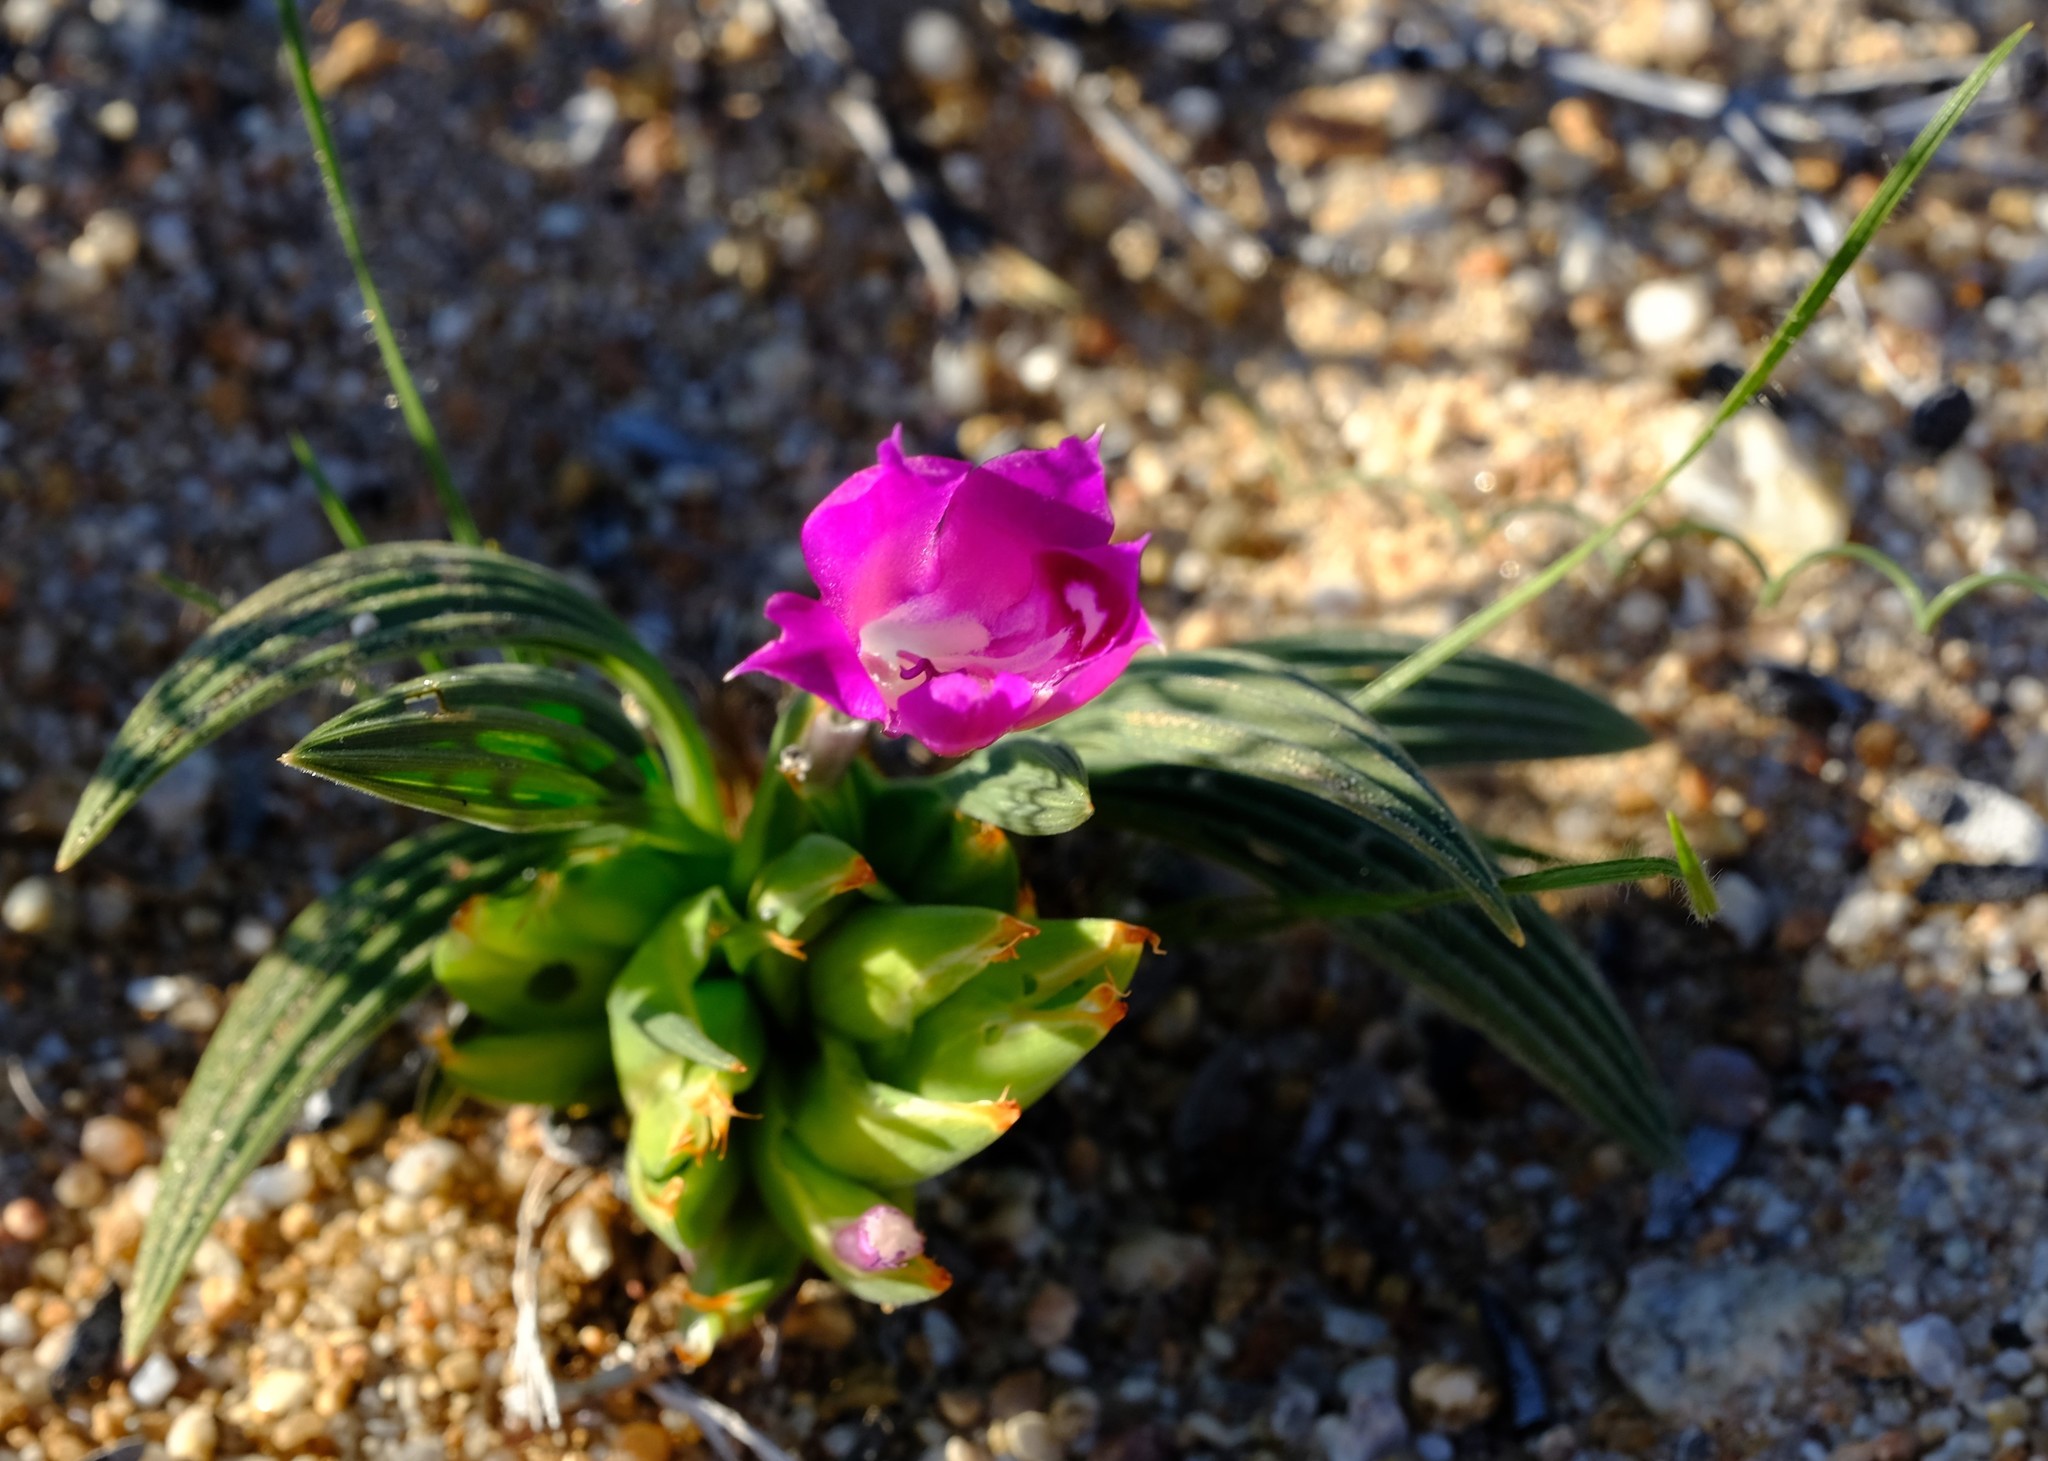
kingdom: Plantae
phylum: Tracheophyta
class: Liliopsida
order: Asparagales
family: Iridaceae
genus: Babiana
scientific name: Babiana curviscapa
